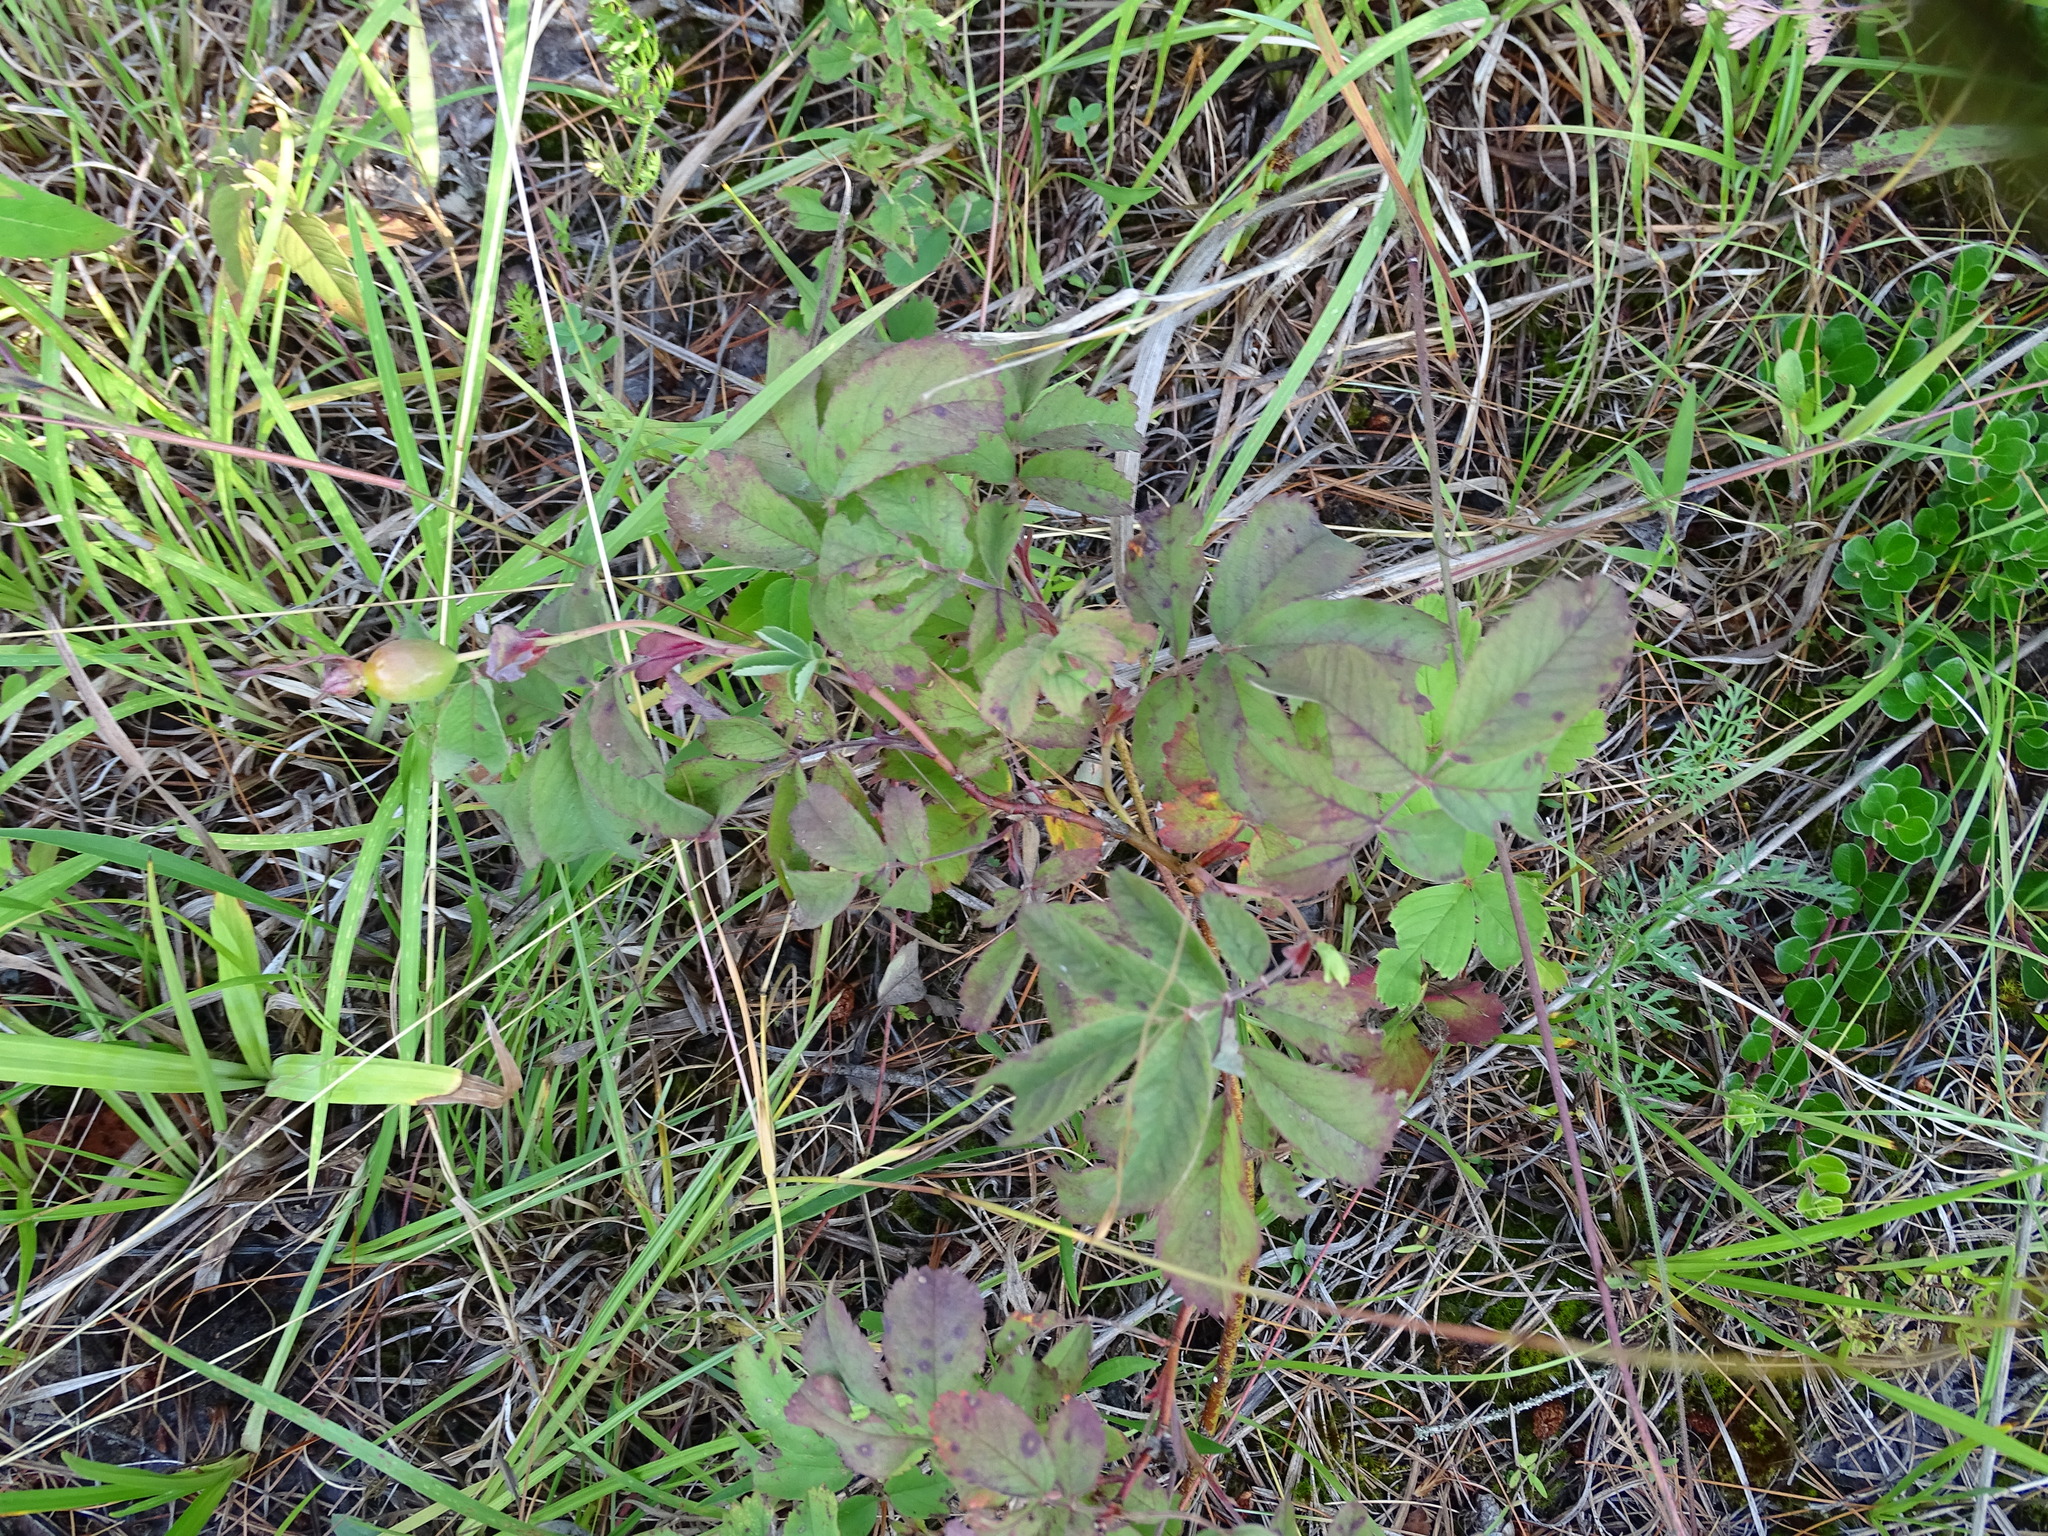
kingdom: Plantae
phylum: Tracheophyta
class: Magnoliopsida
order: Rosales
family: Rosaceae
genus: Rosa
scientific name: Rosa blanda
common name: Smooth rose
